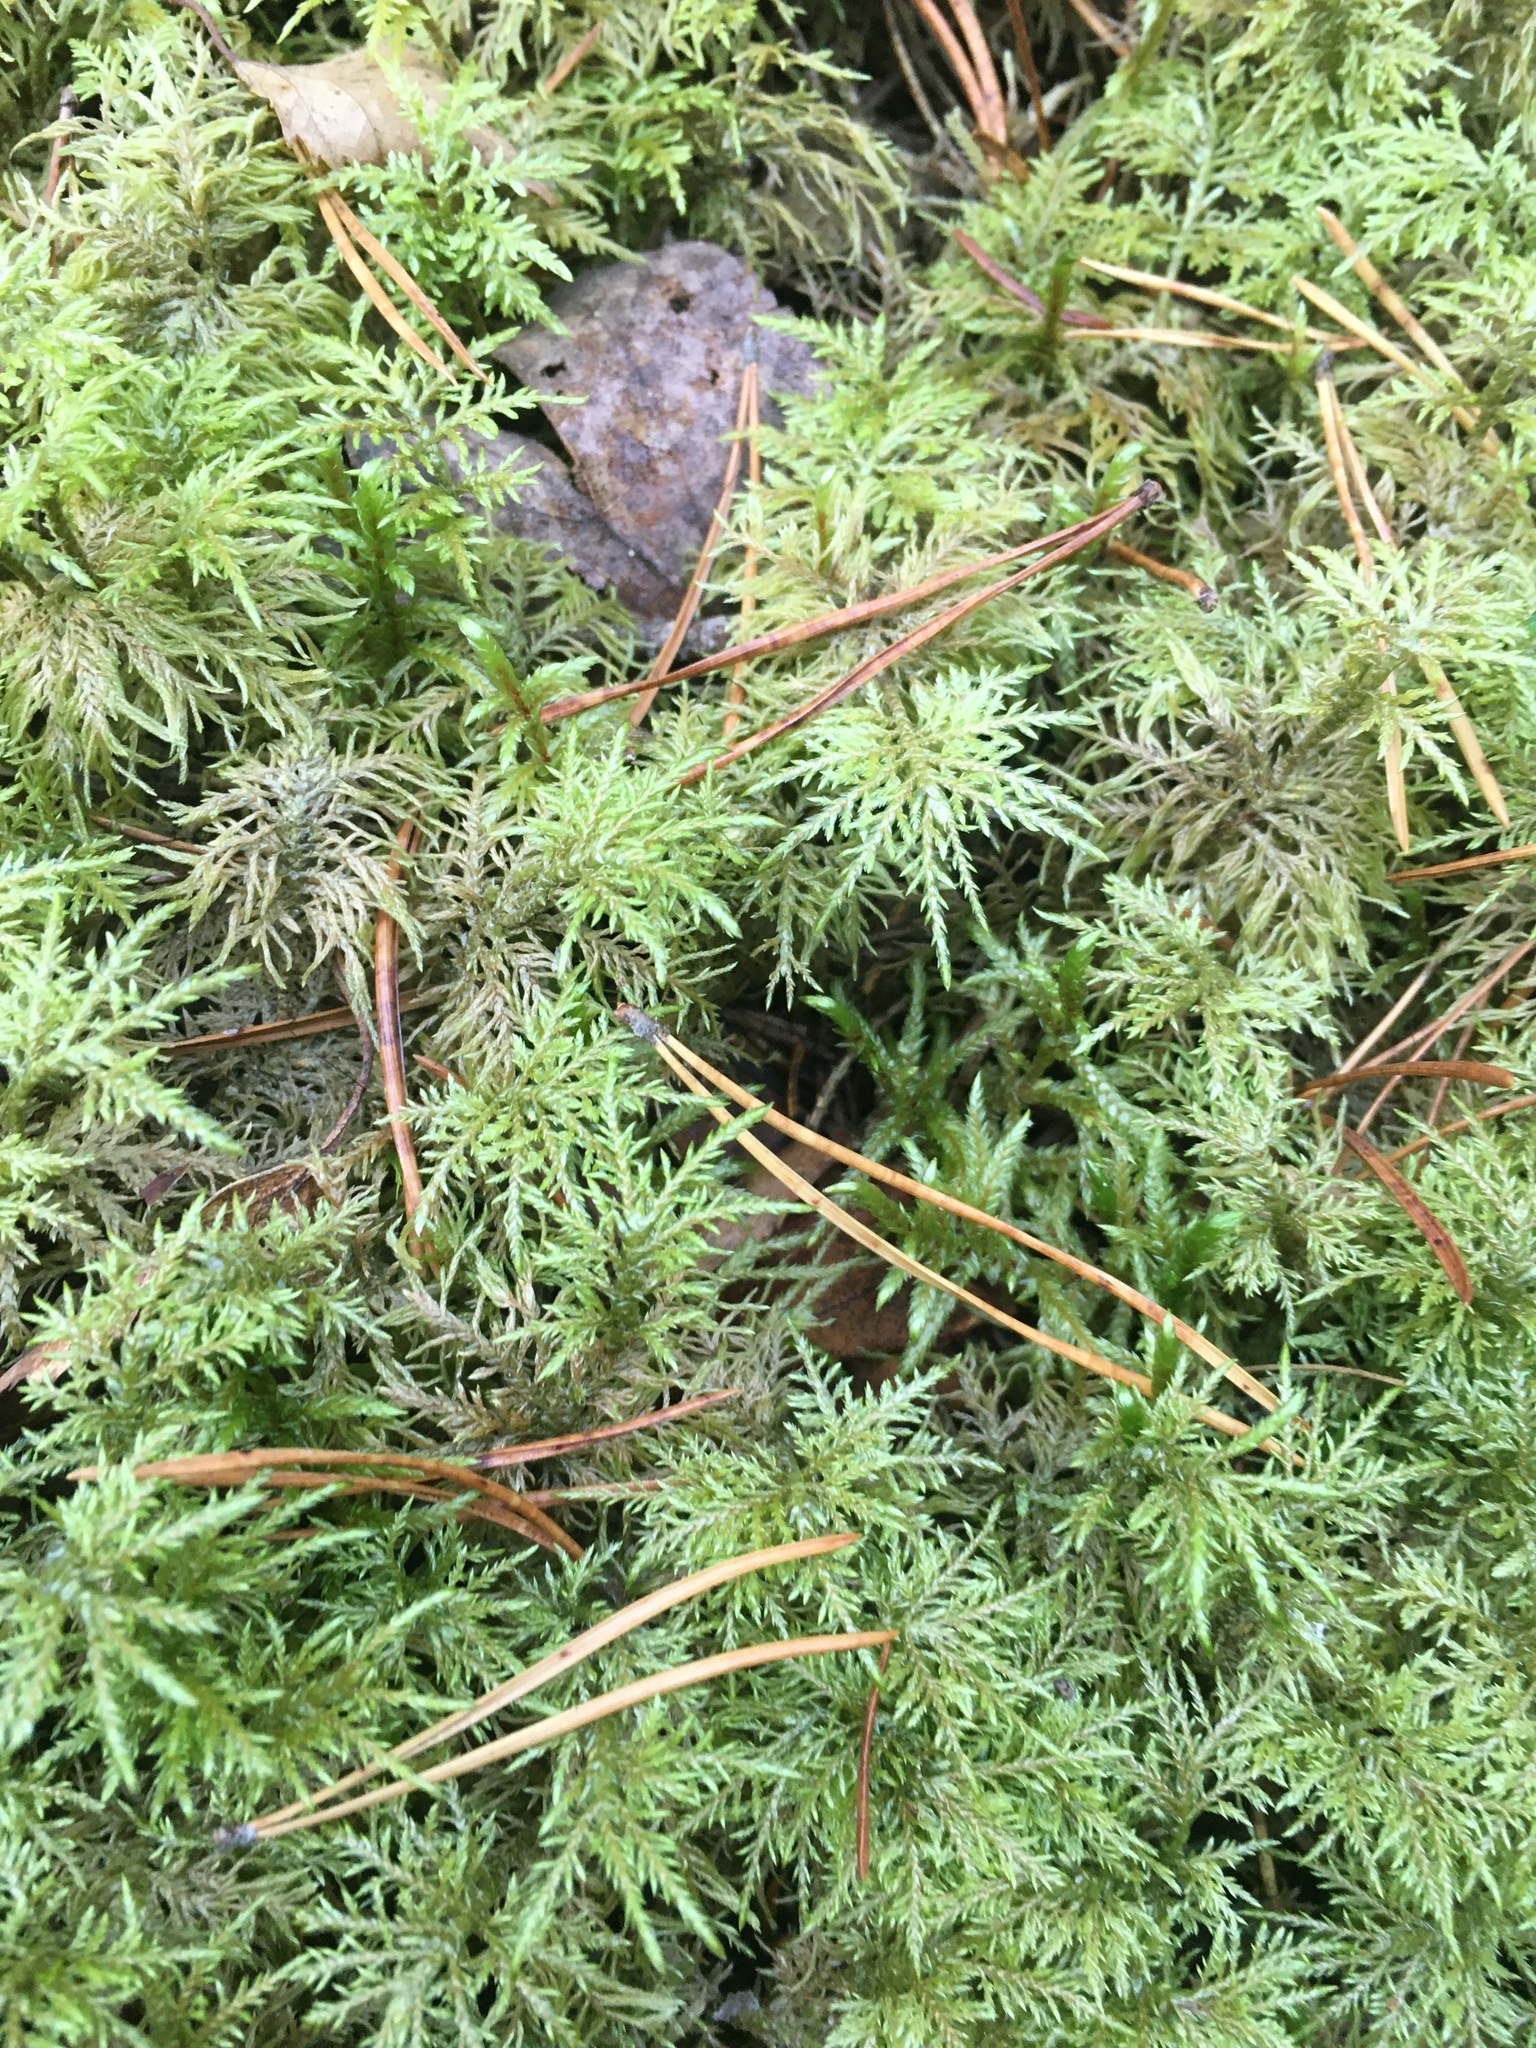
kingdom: Plantae
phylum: Bryophyta
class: Bryopsida
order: Hypnales
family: Hylocomiaceae
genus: Hylocomium
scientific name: Hylocomium splendens
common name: Stairstep moss
